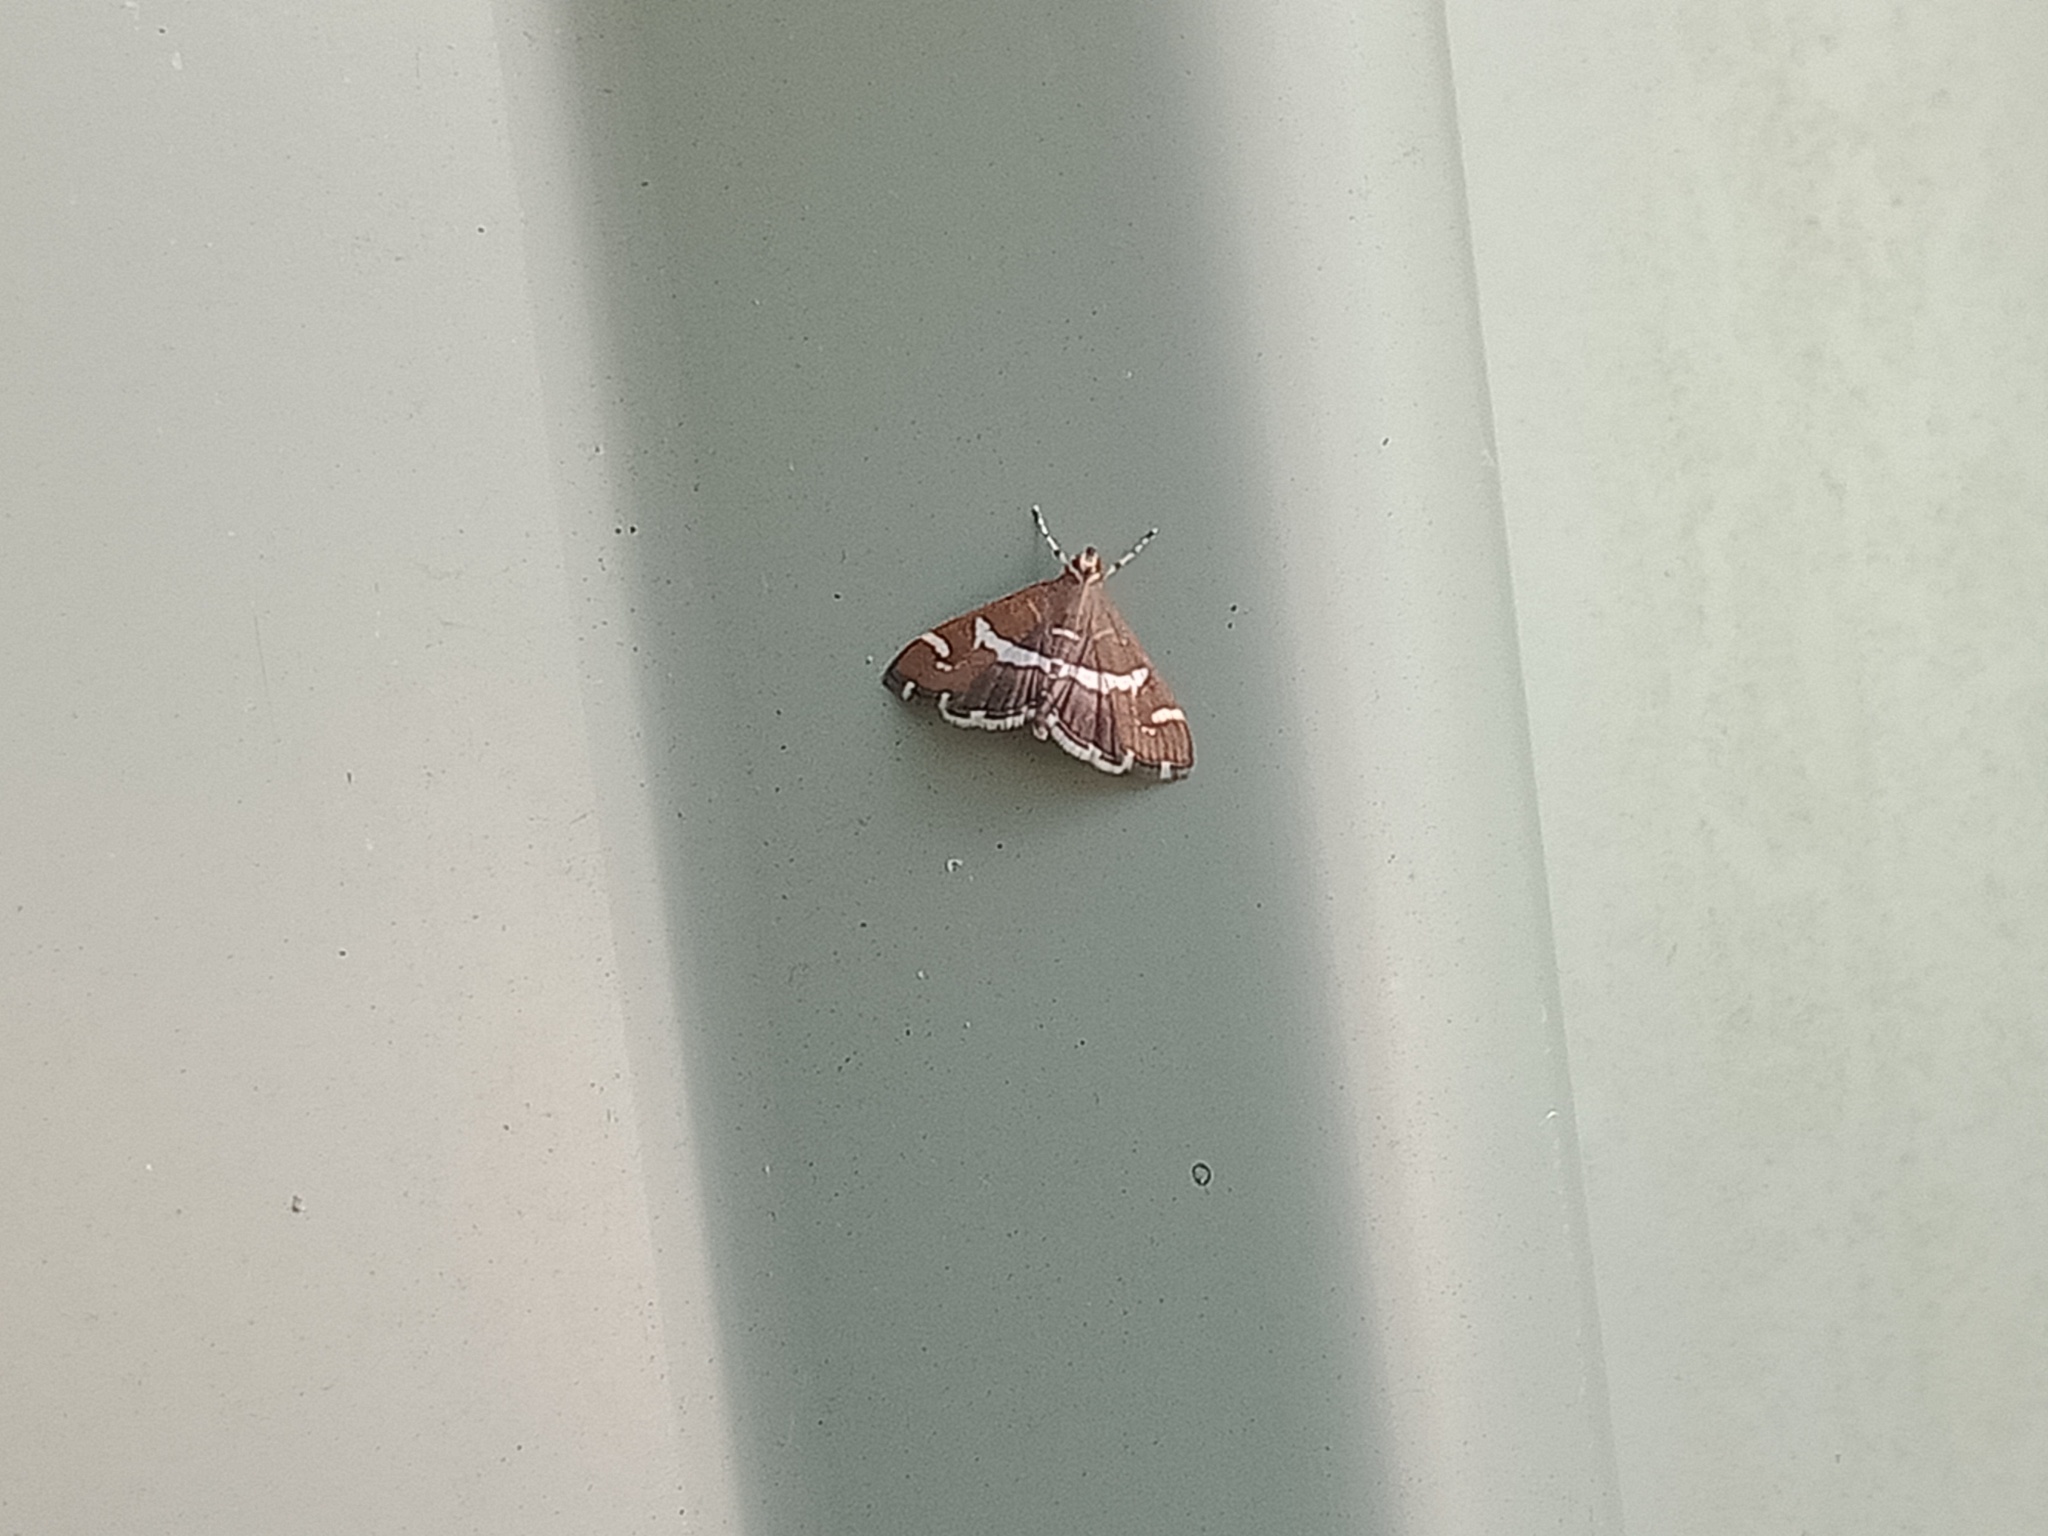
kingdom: Animalia
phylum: Arthropoda
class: Insecta
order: Lepidoptera
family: Crambidae
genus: Spoladea
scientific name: Spoladea recurvalis
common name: Beet webworm moth
